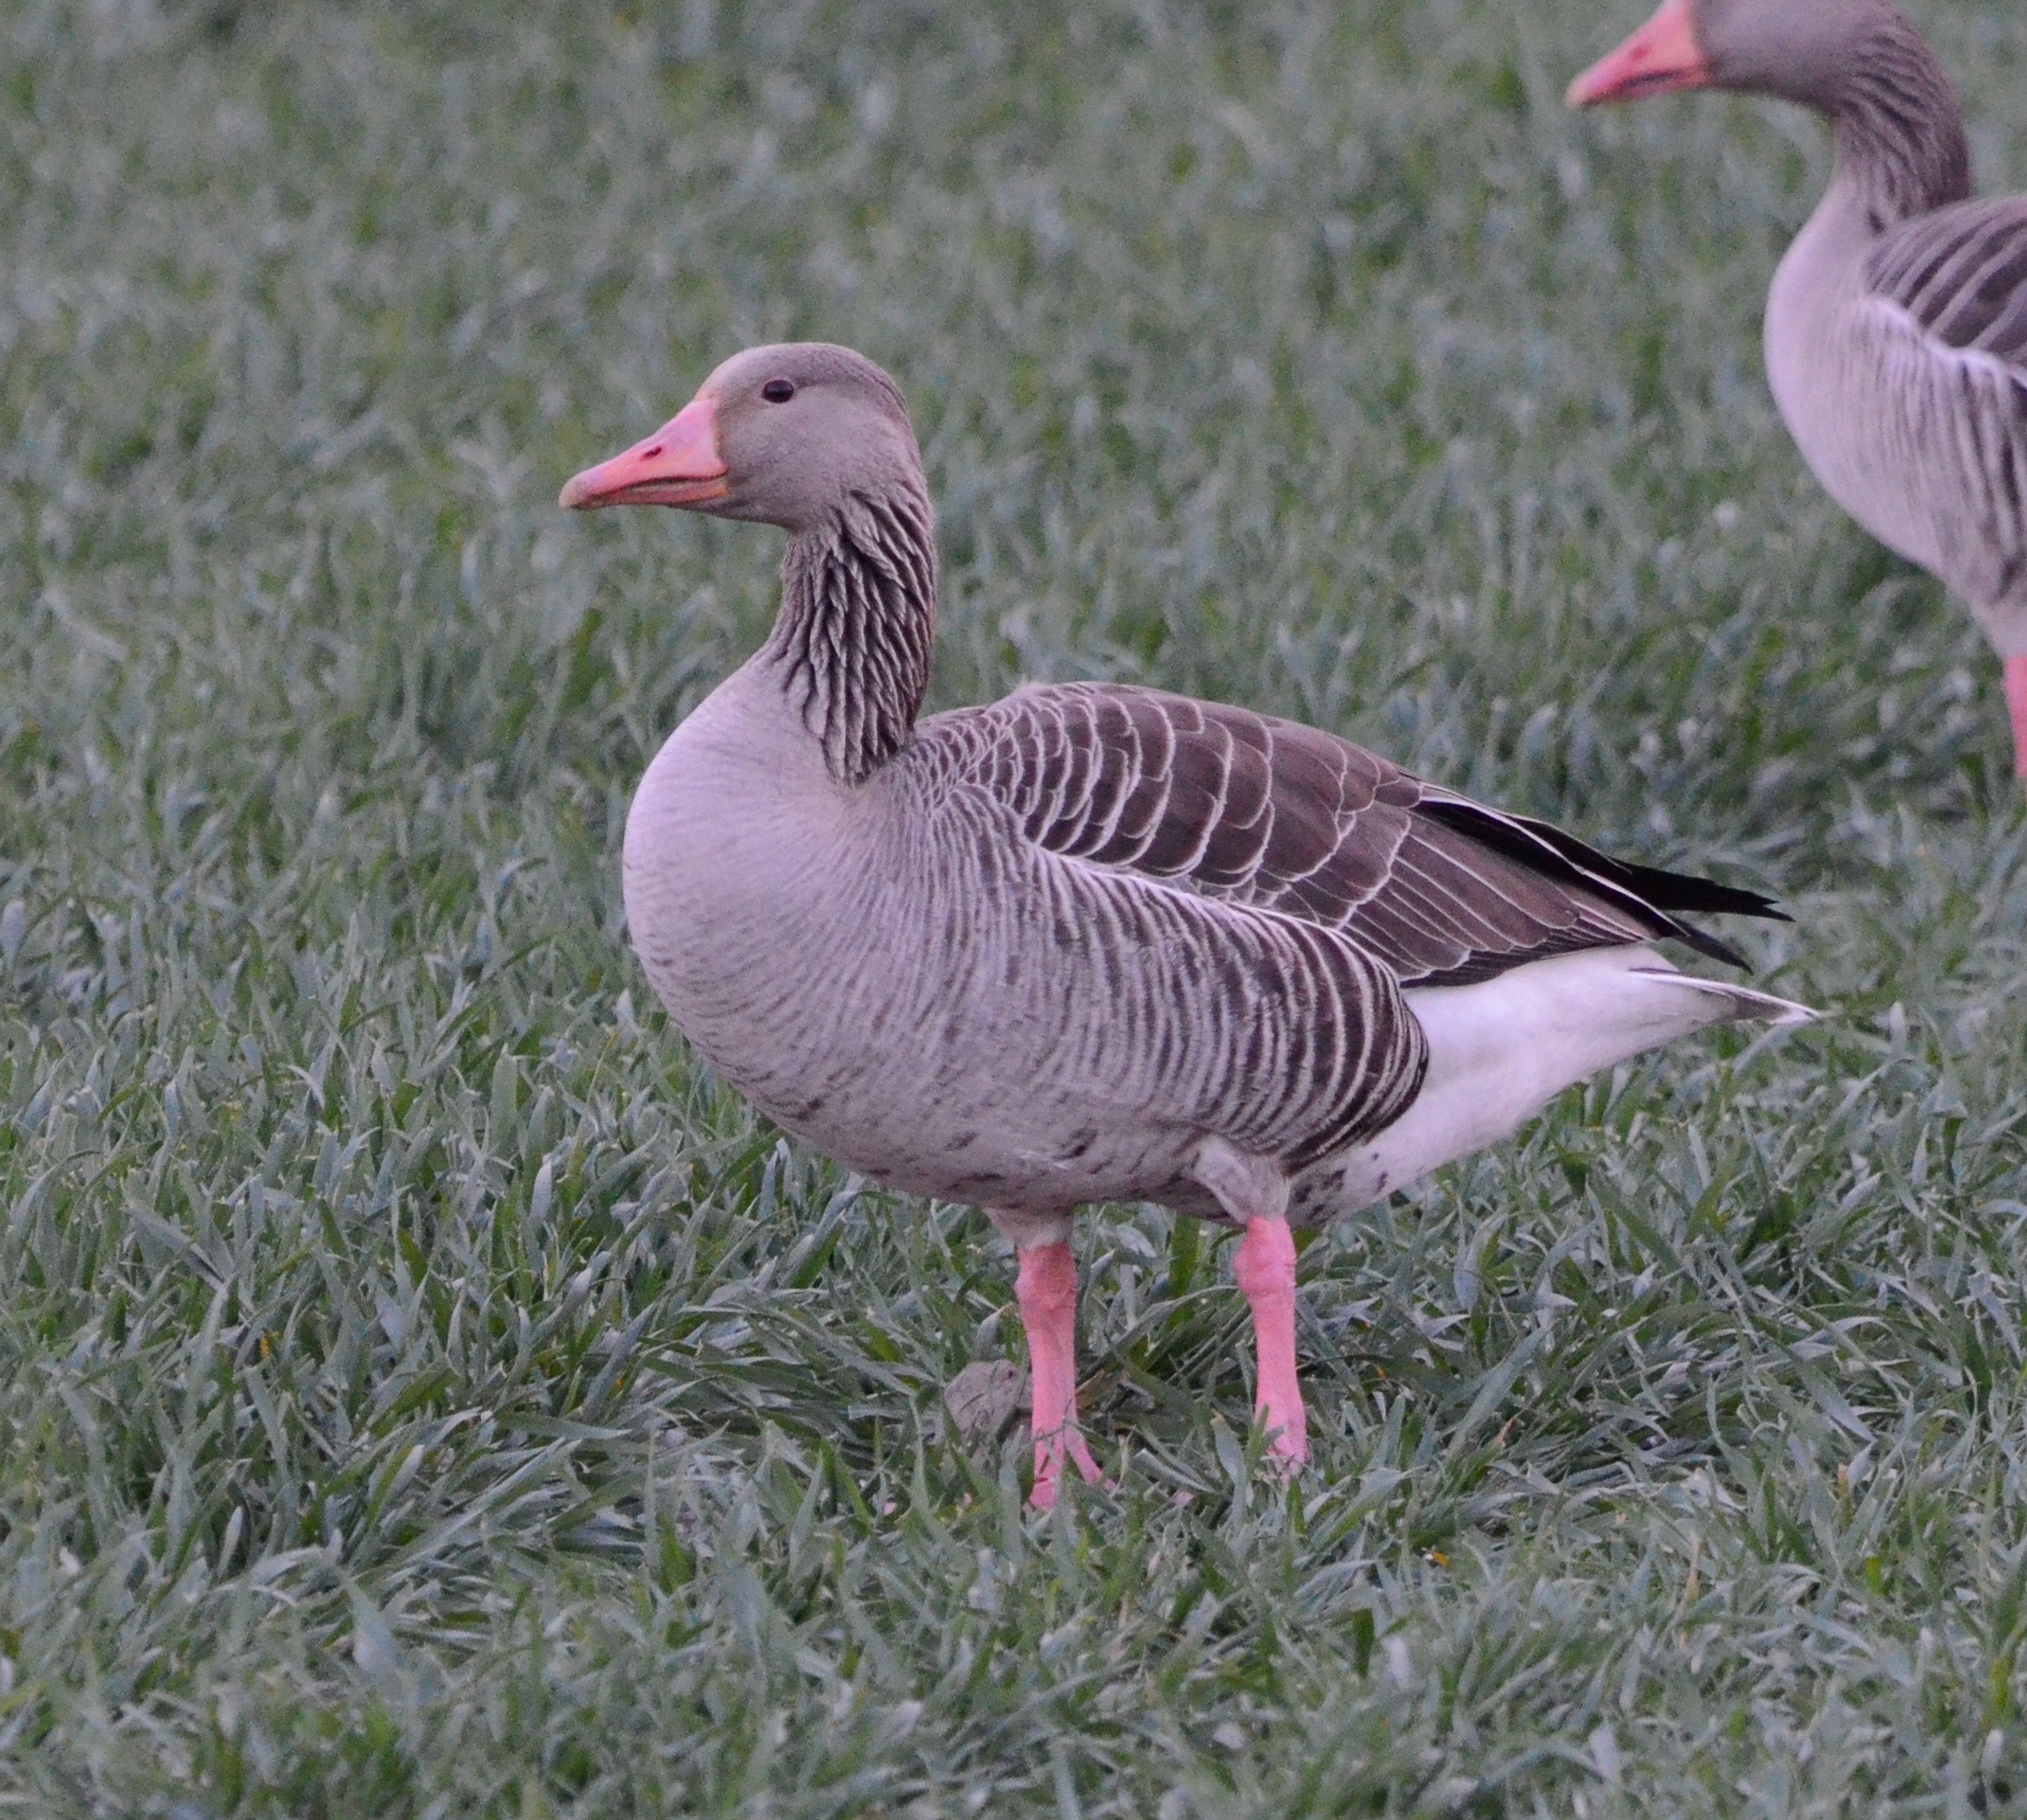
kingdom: Animalia
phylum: Chordata
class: Aves
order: Anseriformes
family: Anatidae
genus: Anser
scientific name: Anser anser
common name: Greylag goose
